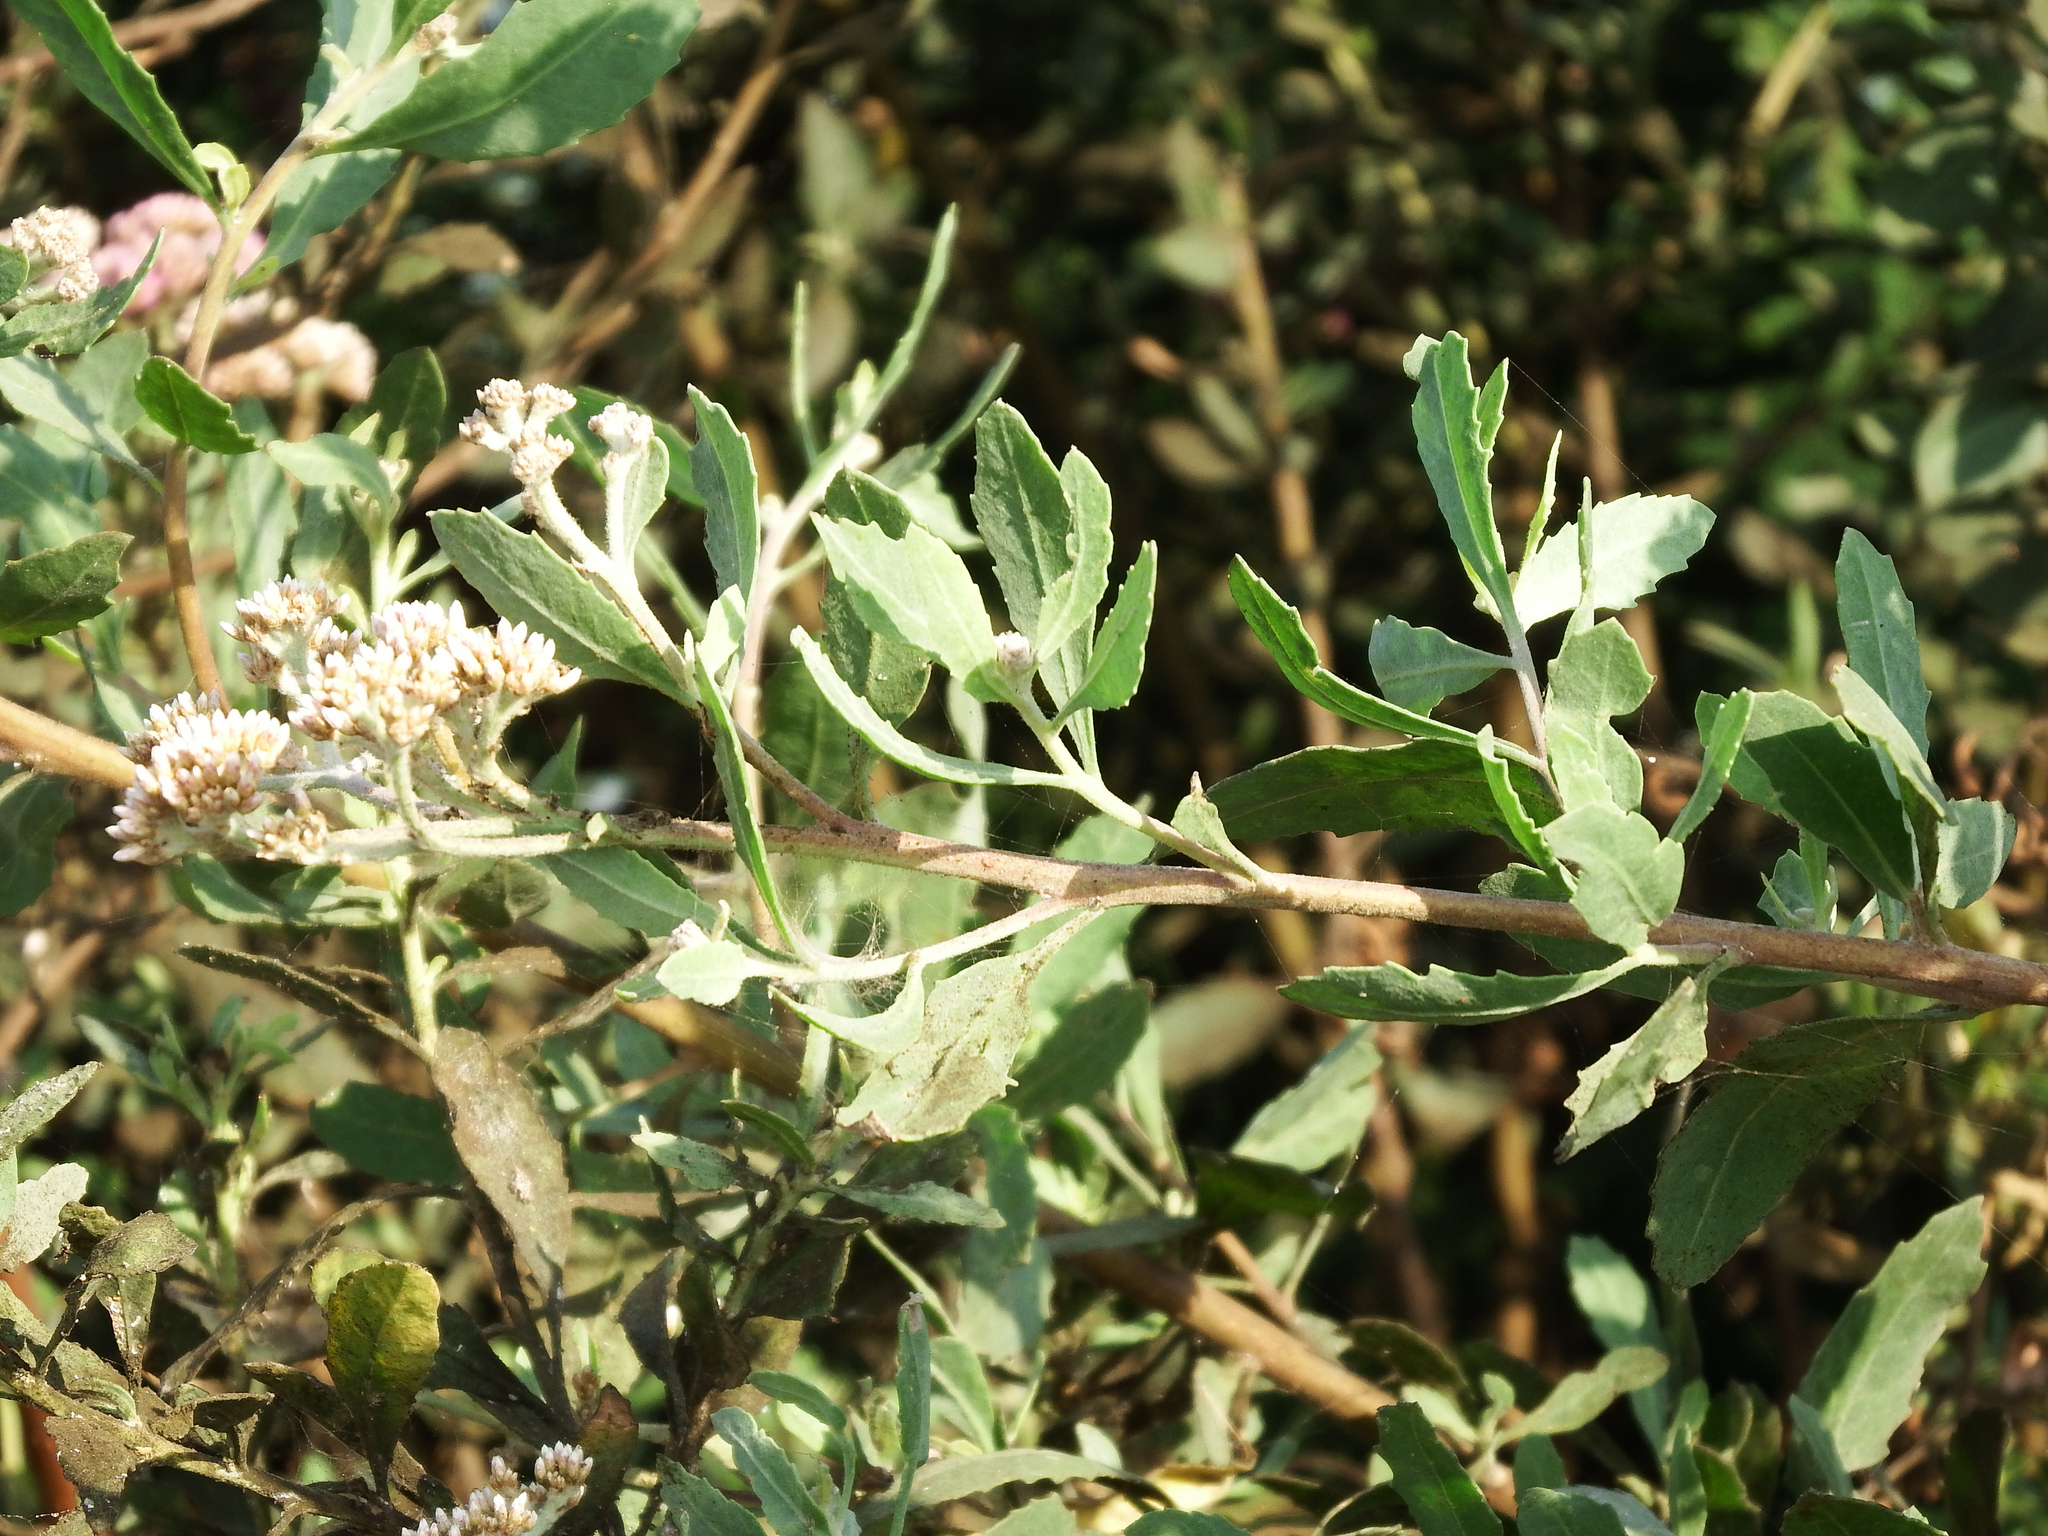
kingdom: Plantae
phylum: Tracheophyta
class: Magnoliopsida
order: Asterales
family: Asteraceae
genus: Tessaria
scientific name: Tessaria integrifolia
